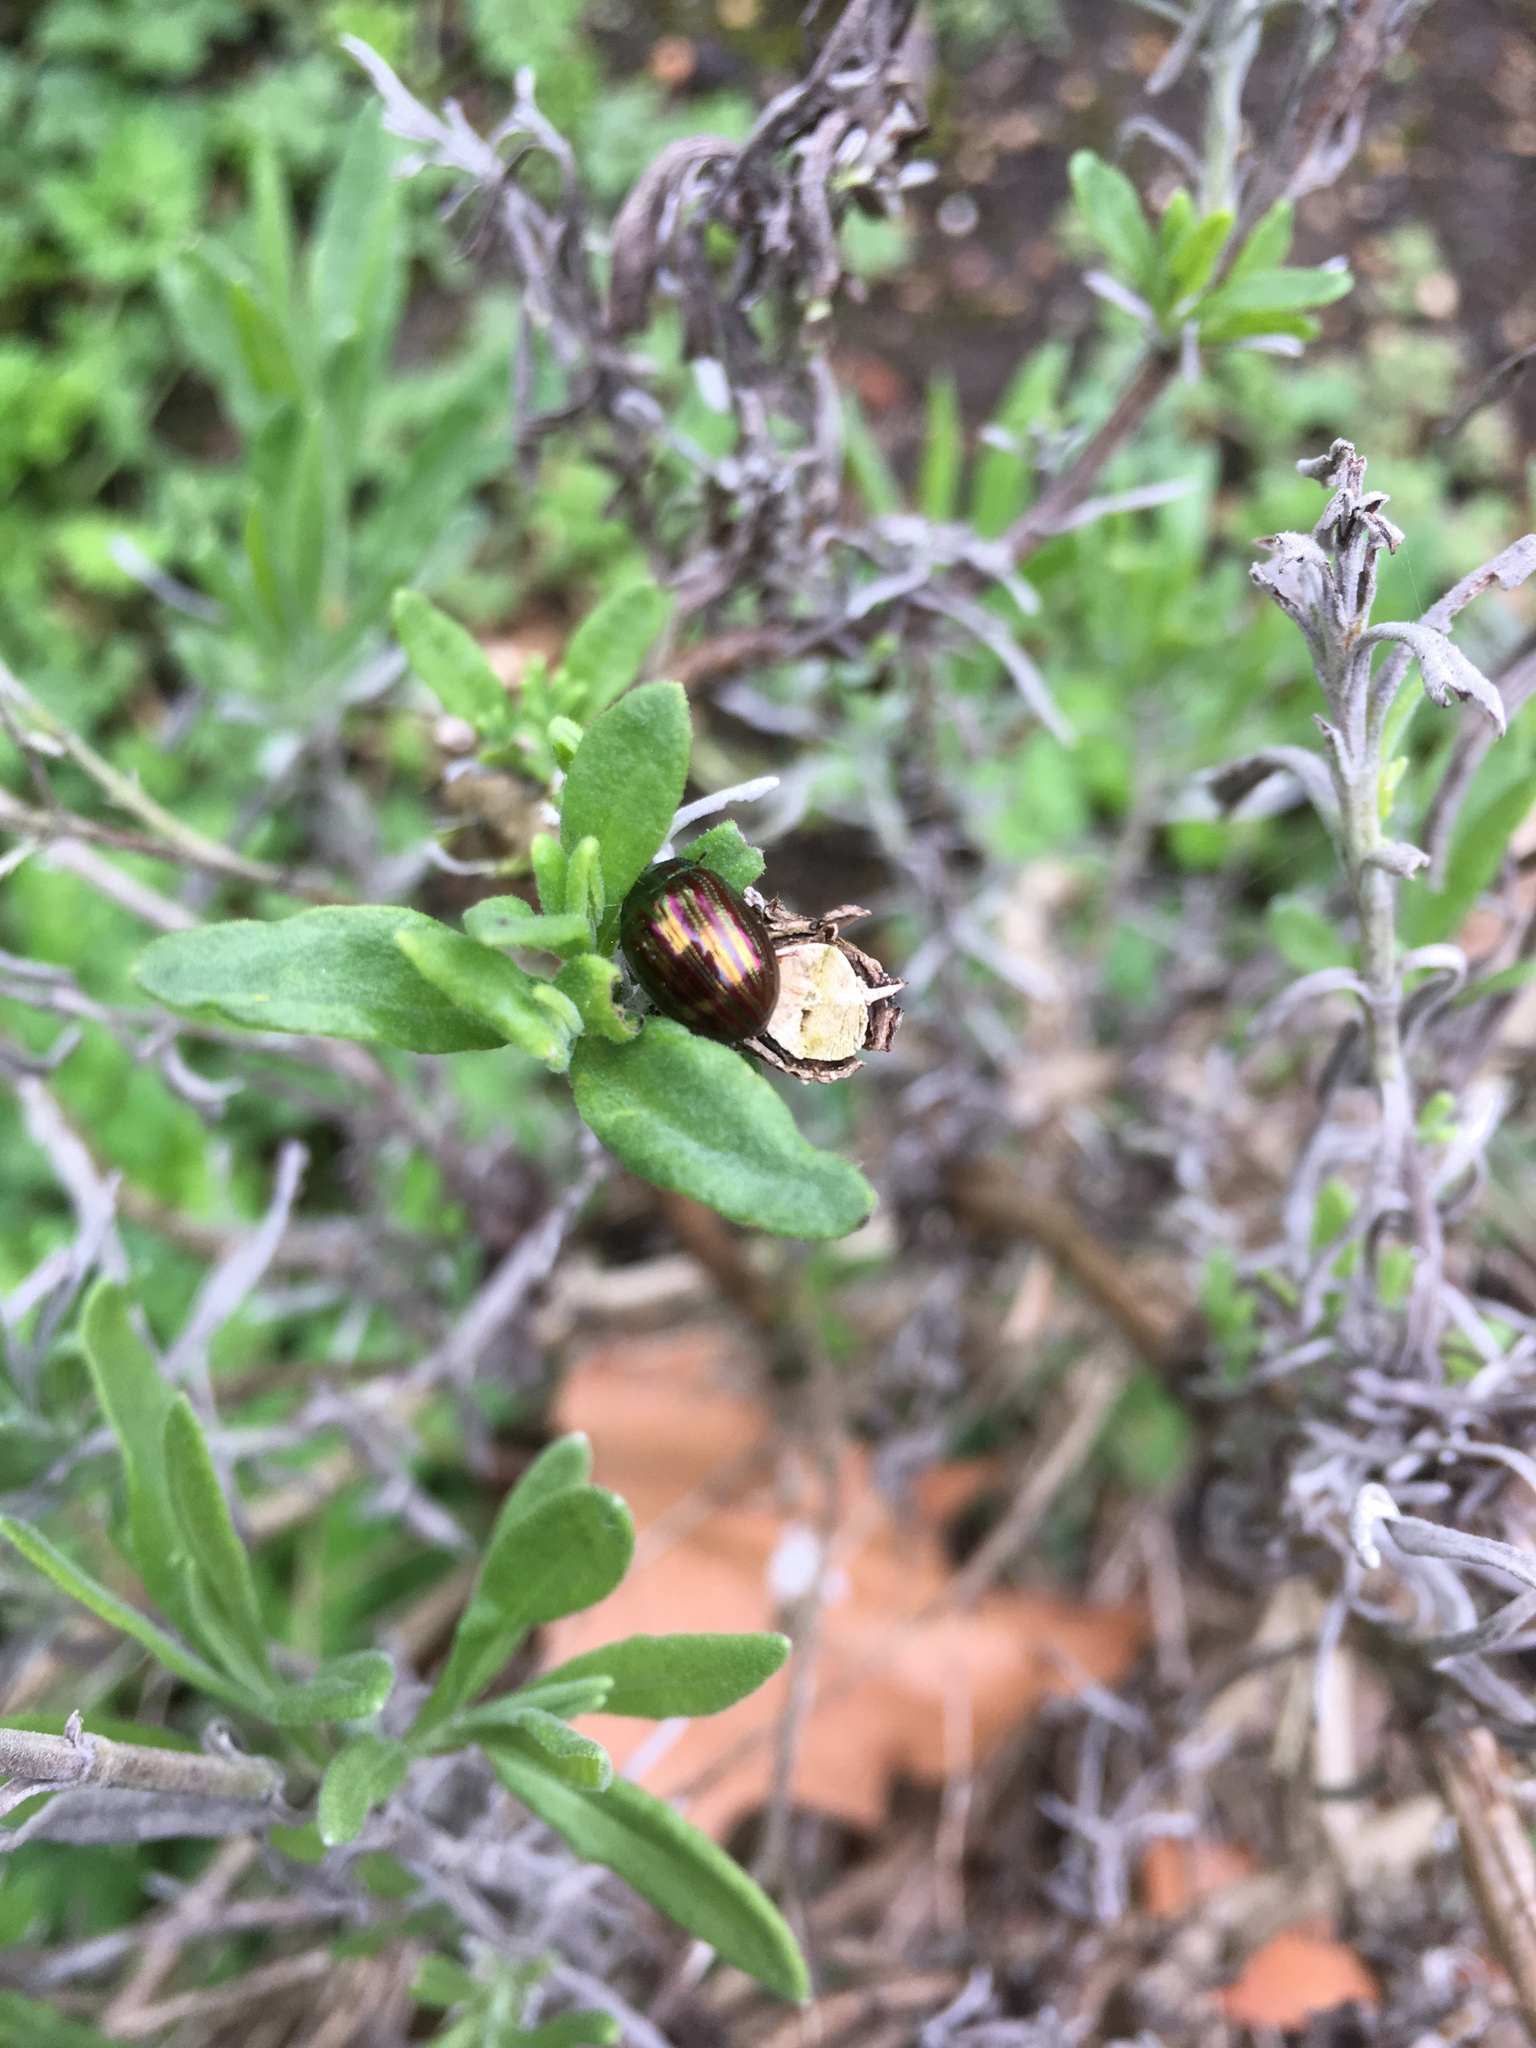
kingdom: Animalia
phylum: Arthropoda
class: Insecta
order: Coleoptera
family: Chrysomelidae
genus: Chrysolina
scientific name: Chrysolina americana
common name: Rosemary beetle
